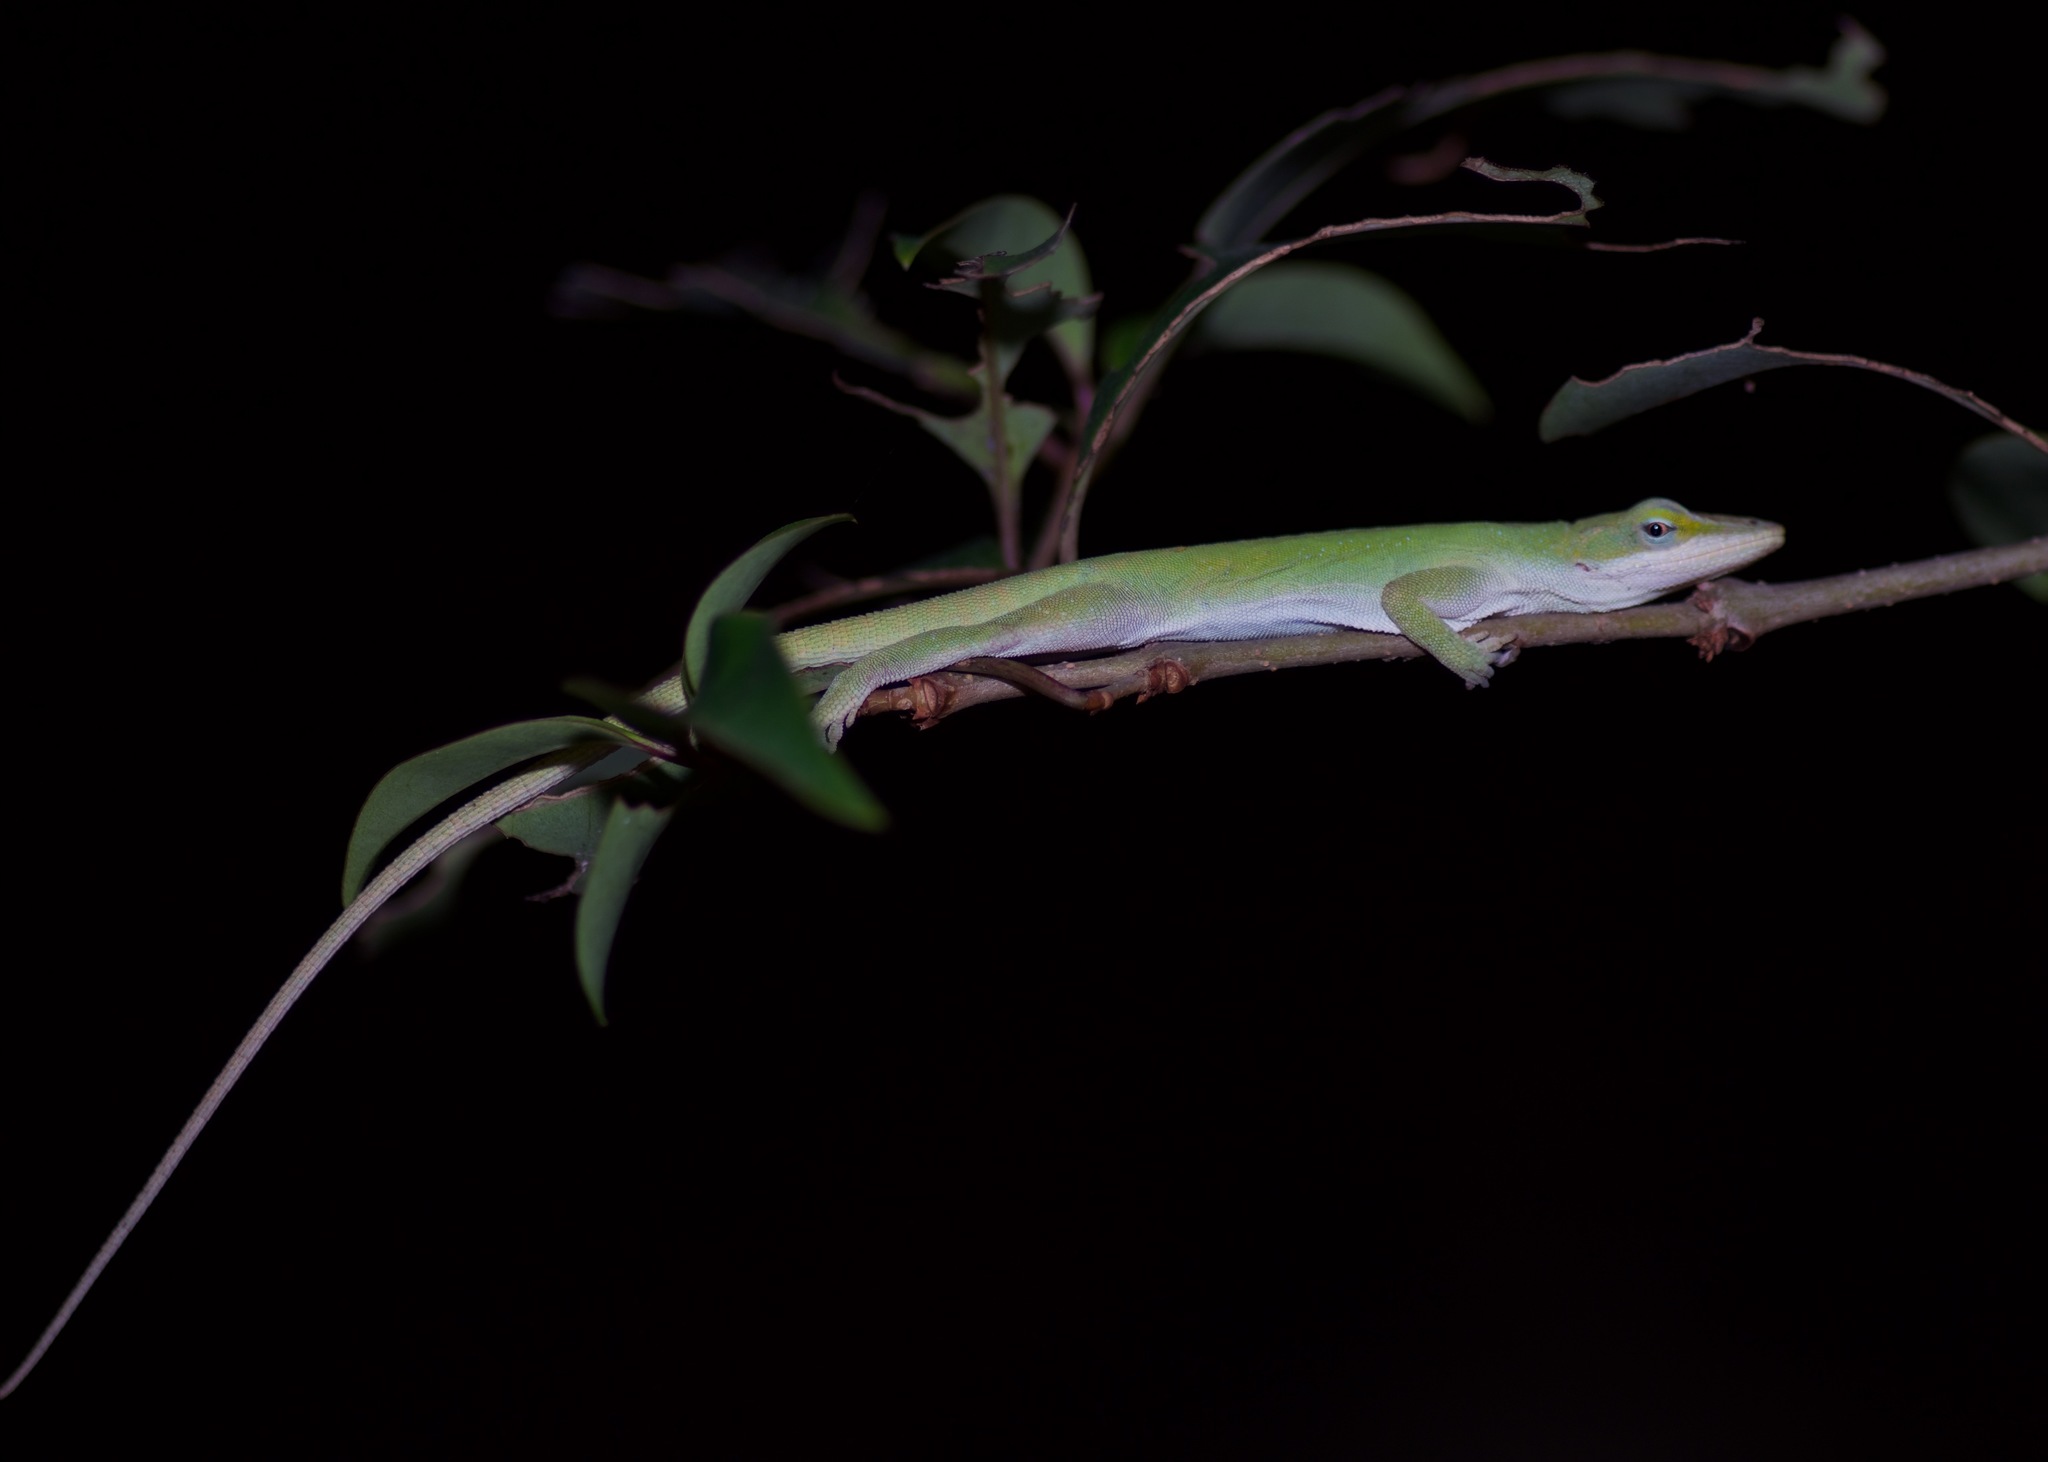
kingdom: Animalia
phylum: Chordata
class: Squamata
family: Dactyloidae
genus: Anolis
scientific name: Anolis carolinensis
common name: Green anole
